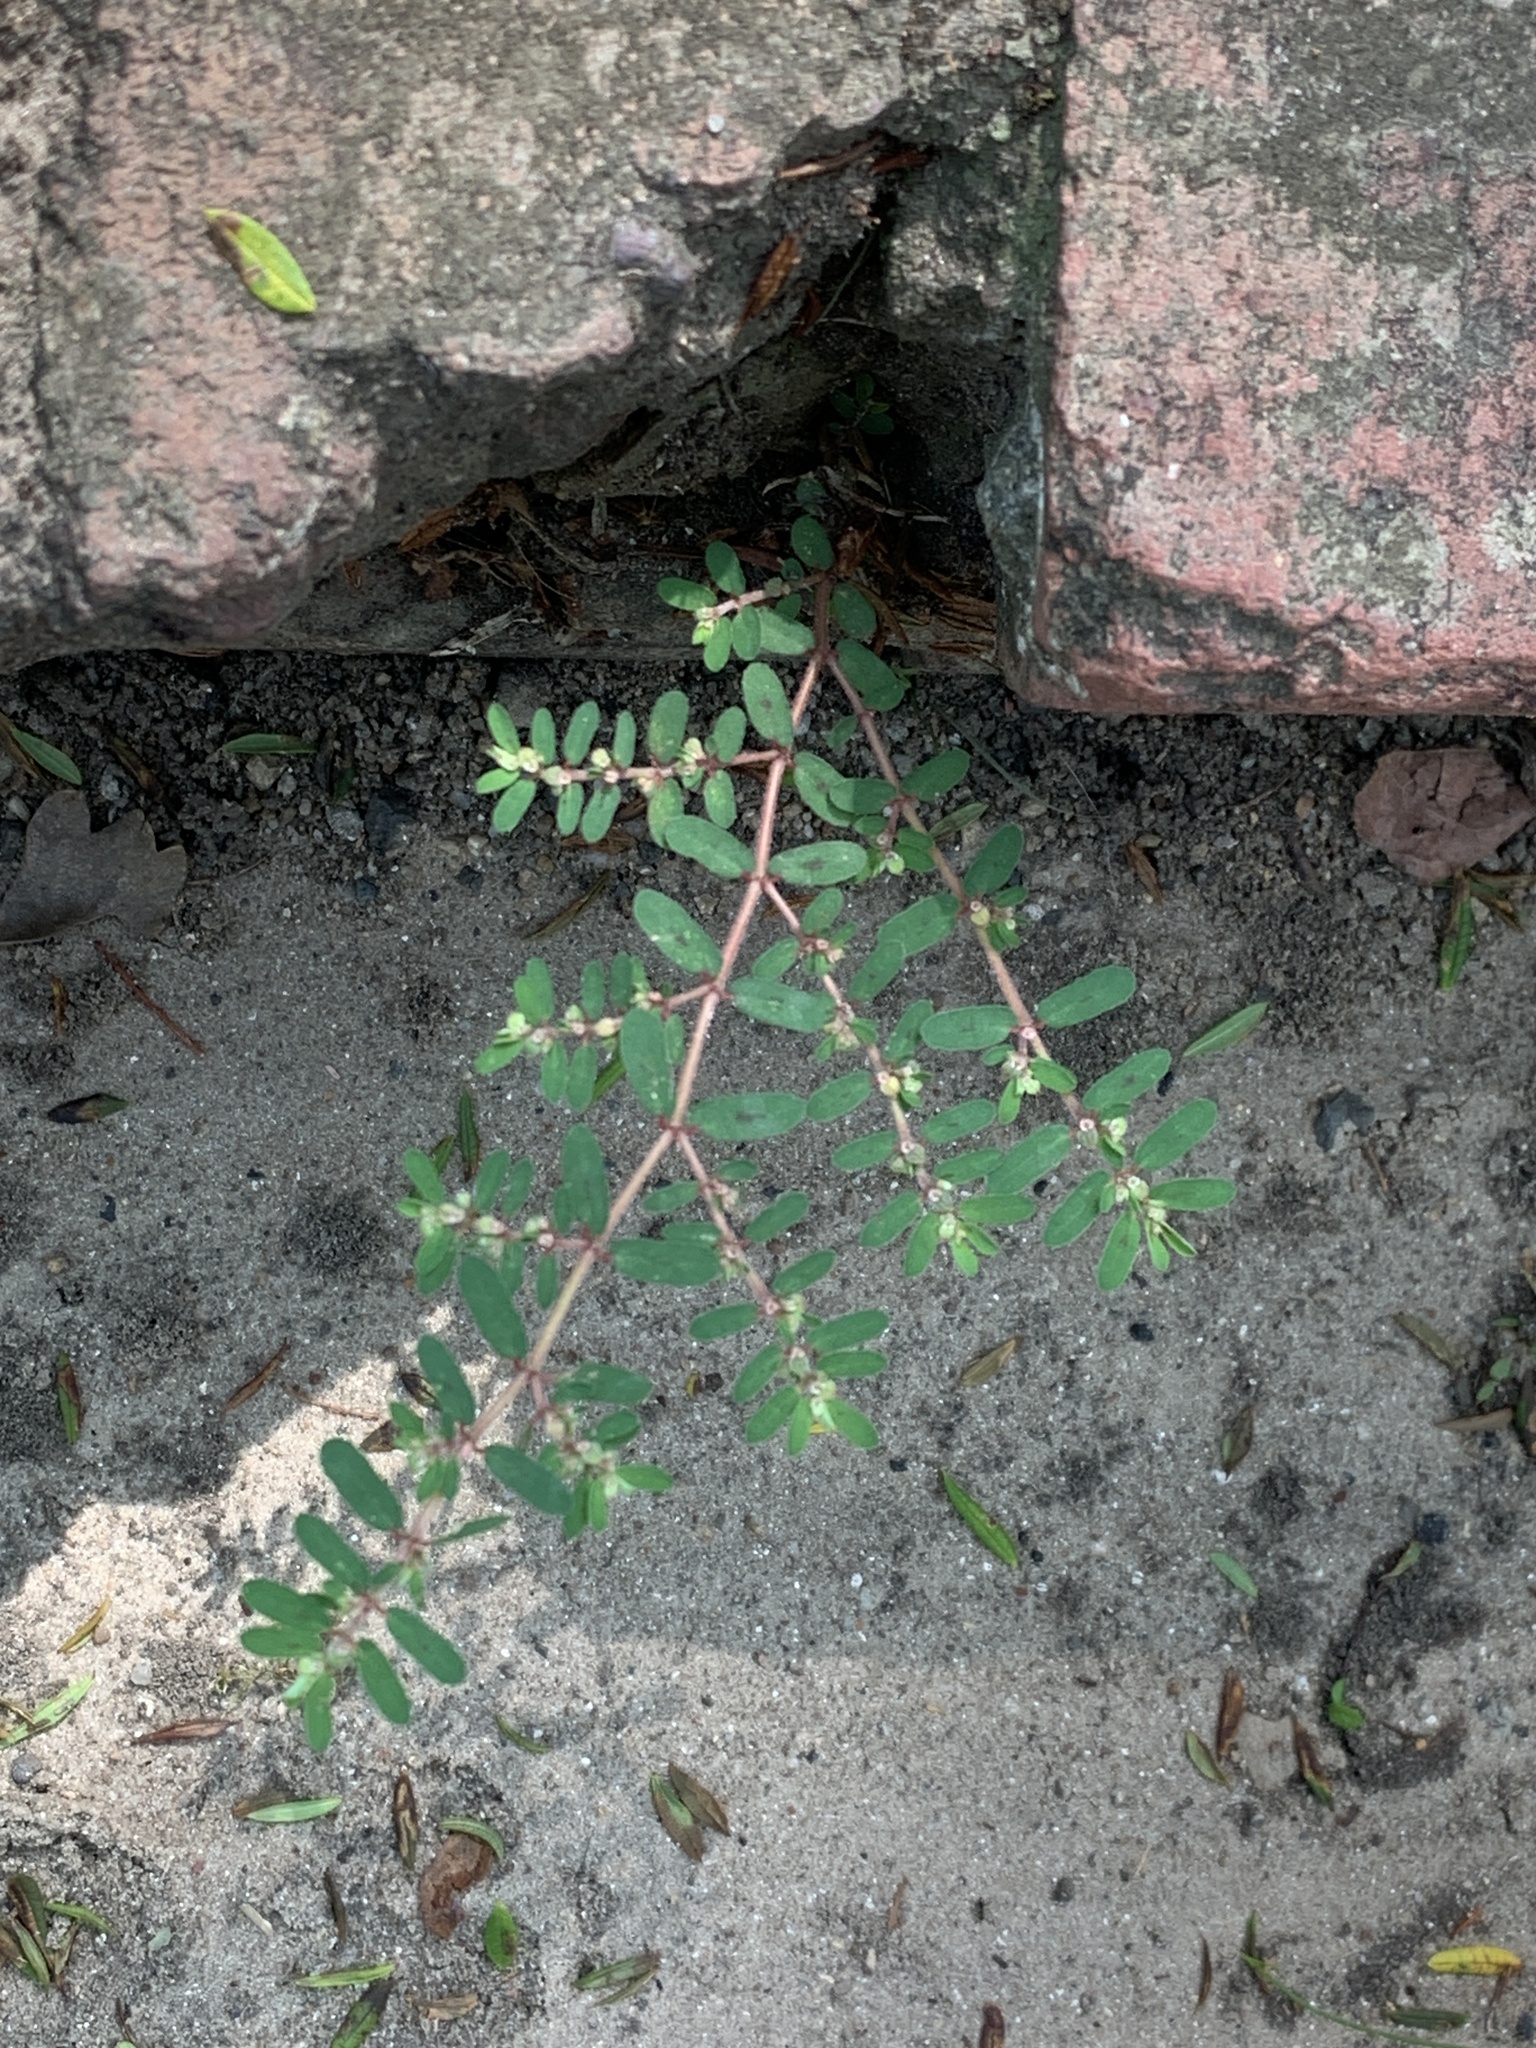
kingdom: Plantae
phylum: Tracheophyta
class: Magnoliopsida
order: Malpighiales
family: Euphorbiaceae
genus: Euphorbia
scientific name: Euphorbia maculata
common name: Spotted spurge
